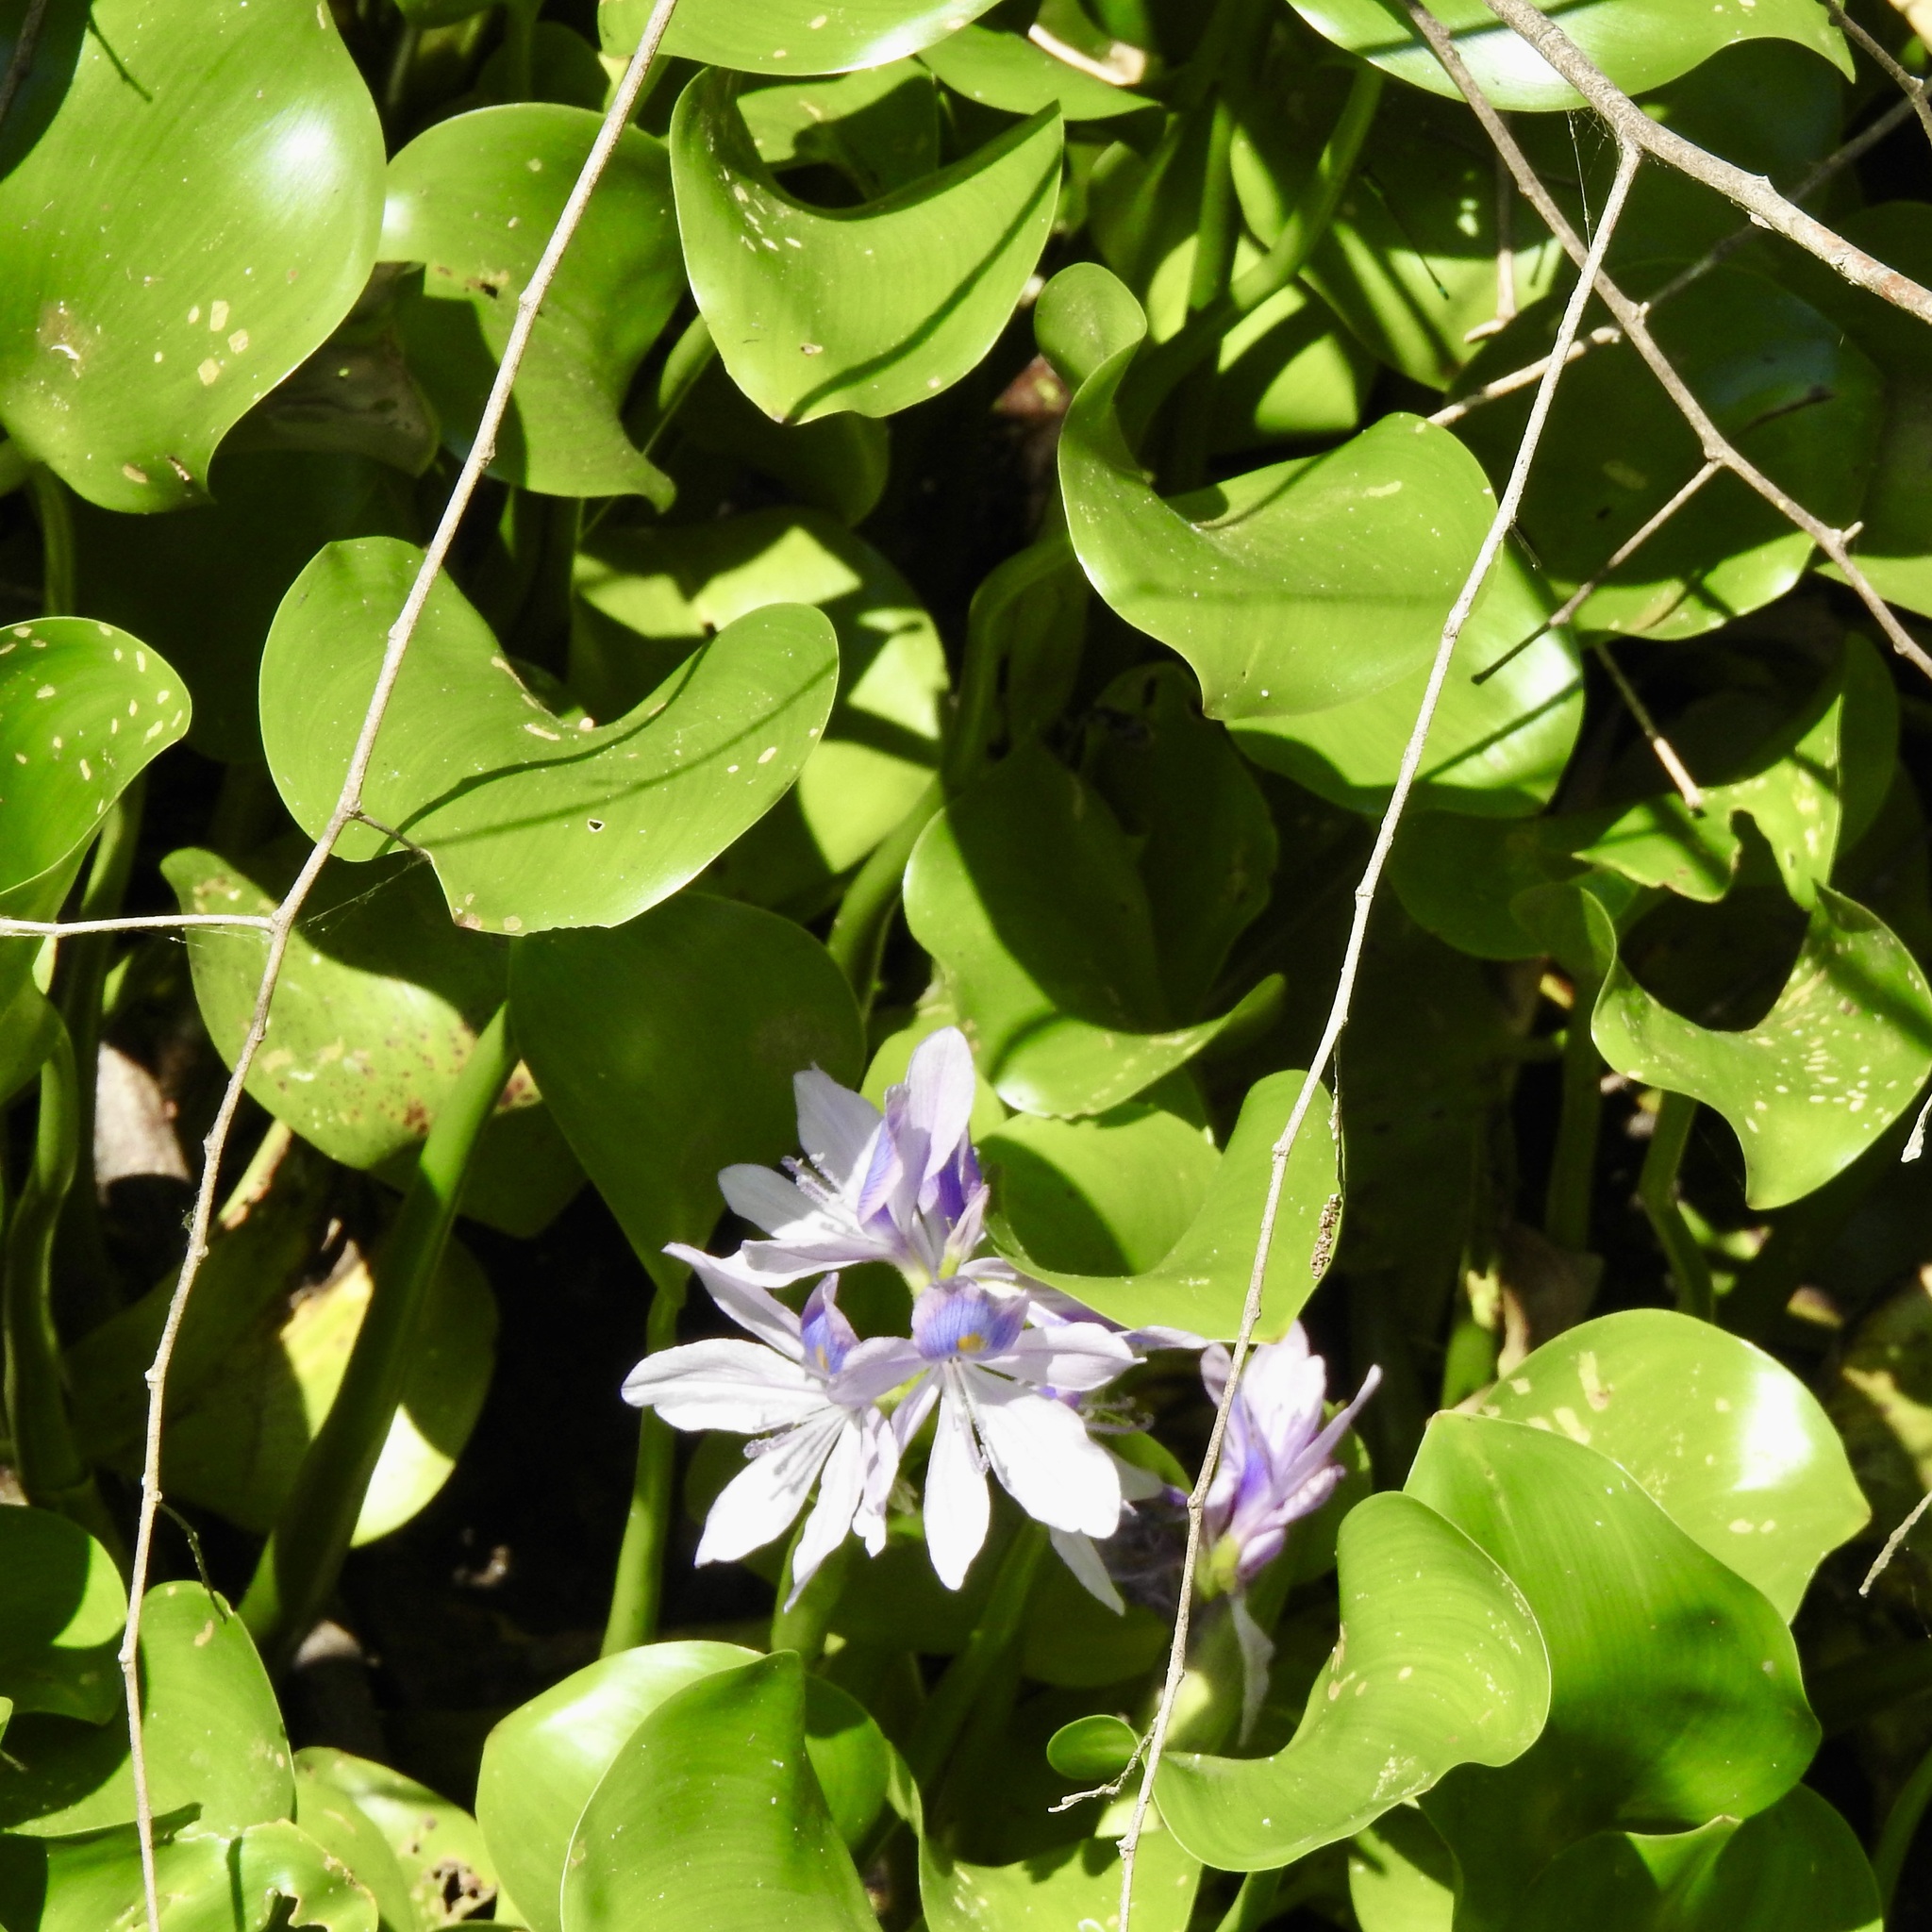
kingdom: Plantae
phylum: Tracheophyta
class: Liliopsida
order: Commelinales
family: Pontederiaceae
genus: Pontederia
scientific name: Pontederia crassipes
